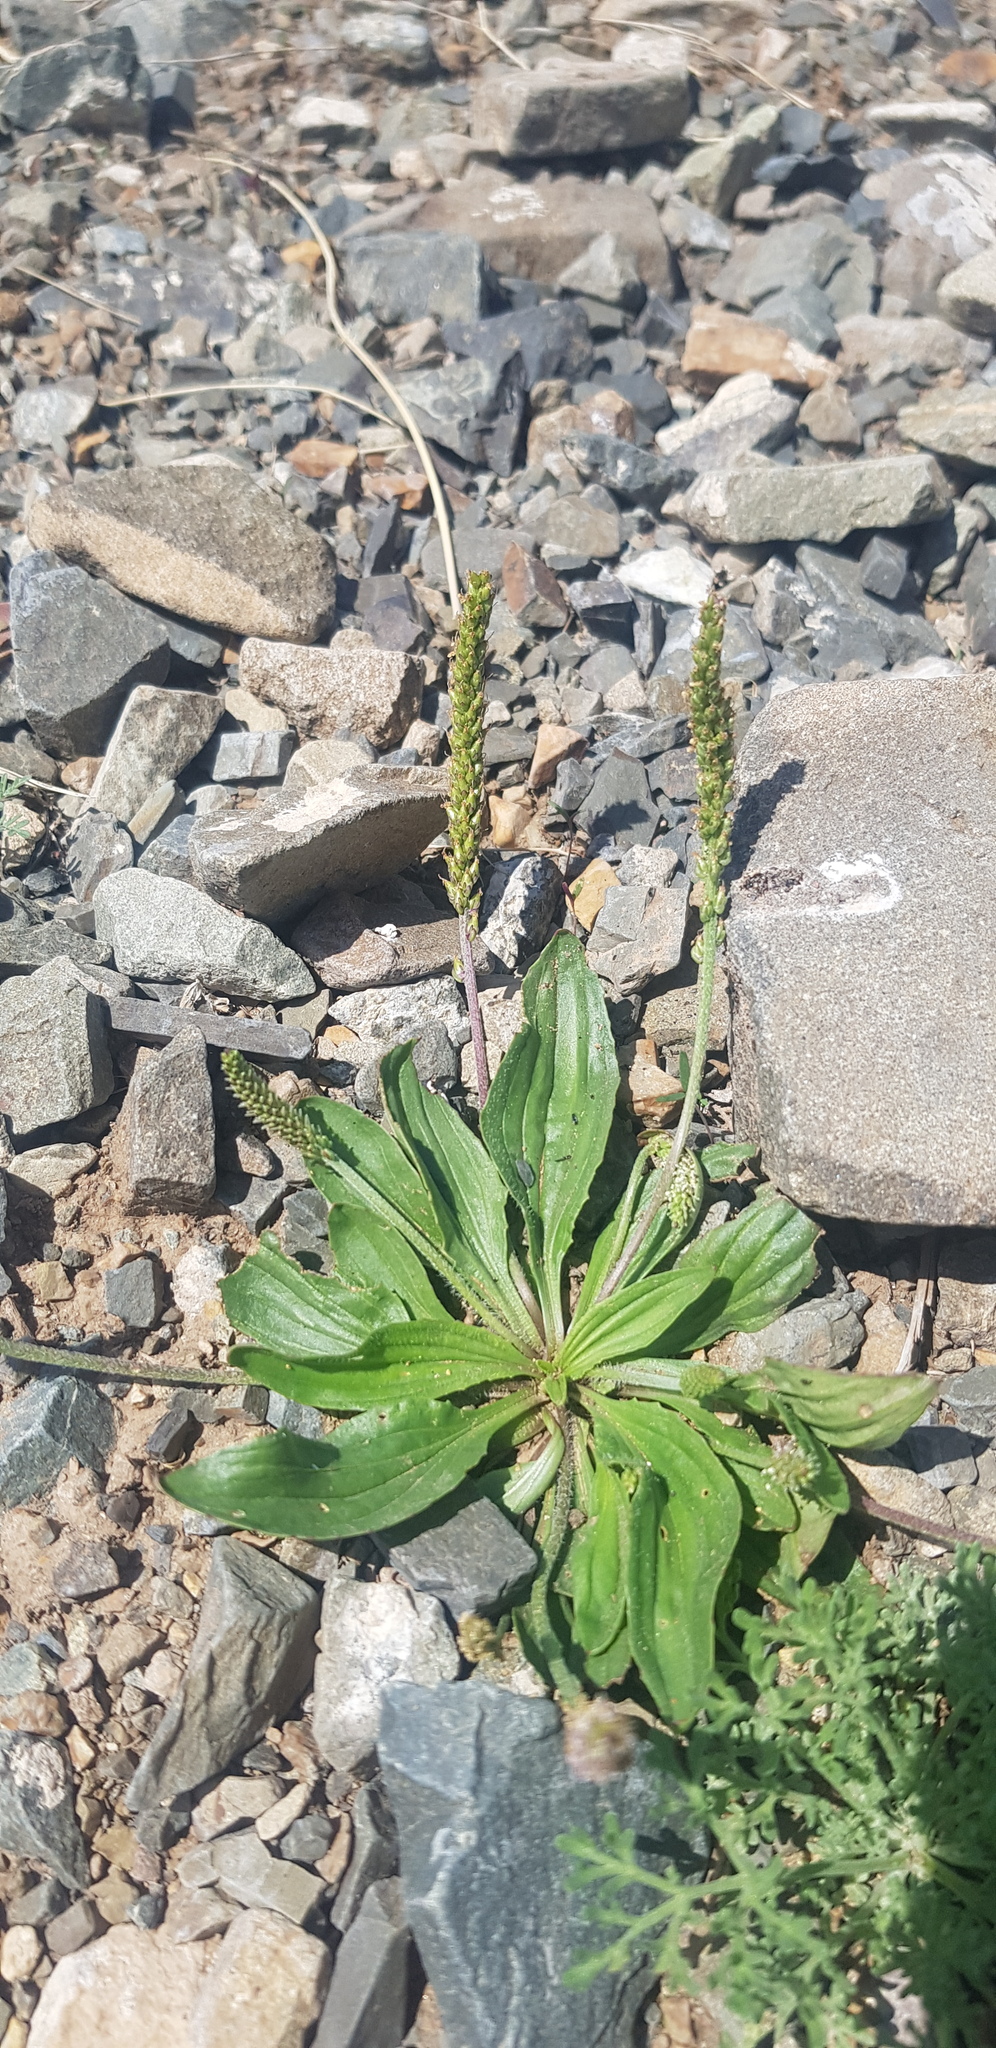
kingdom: Plantae
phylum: Tracheophyta
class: Magnoliopsida
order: Lamiales
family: Plantaginaceae
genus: Plantago
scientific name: Plantago depressa
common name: Depressed plantain
